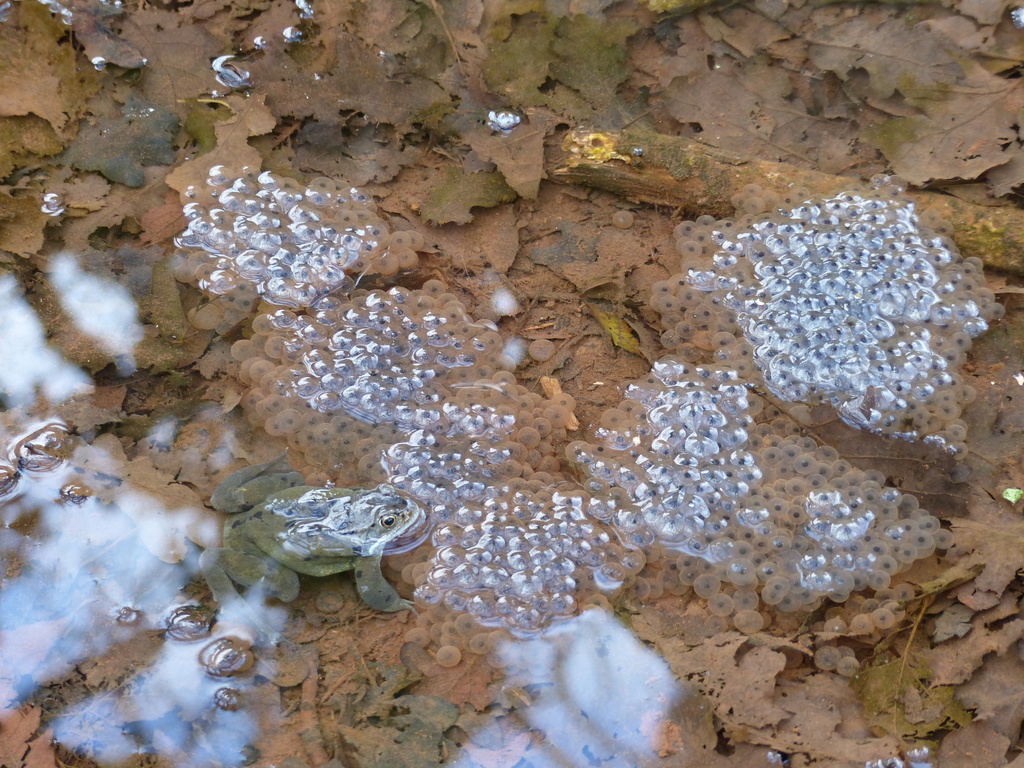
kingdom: Animalia
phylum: Chordata
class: Amphibia
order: Anura
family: Ranidae
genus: Rana
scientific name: Rana temporaria
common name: Common frog
